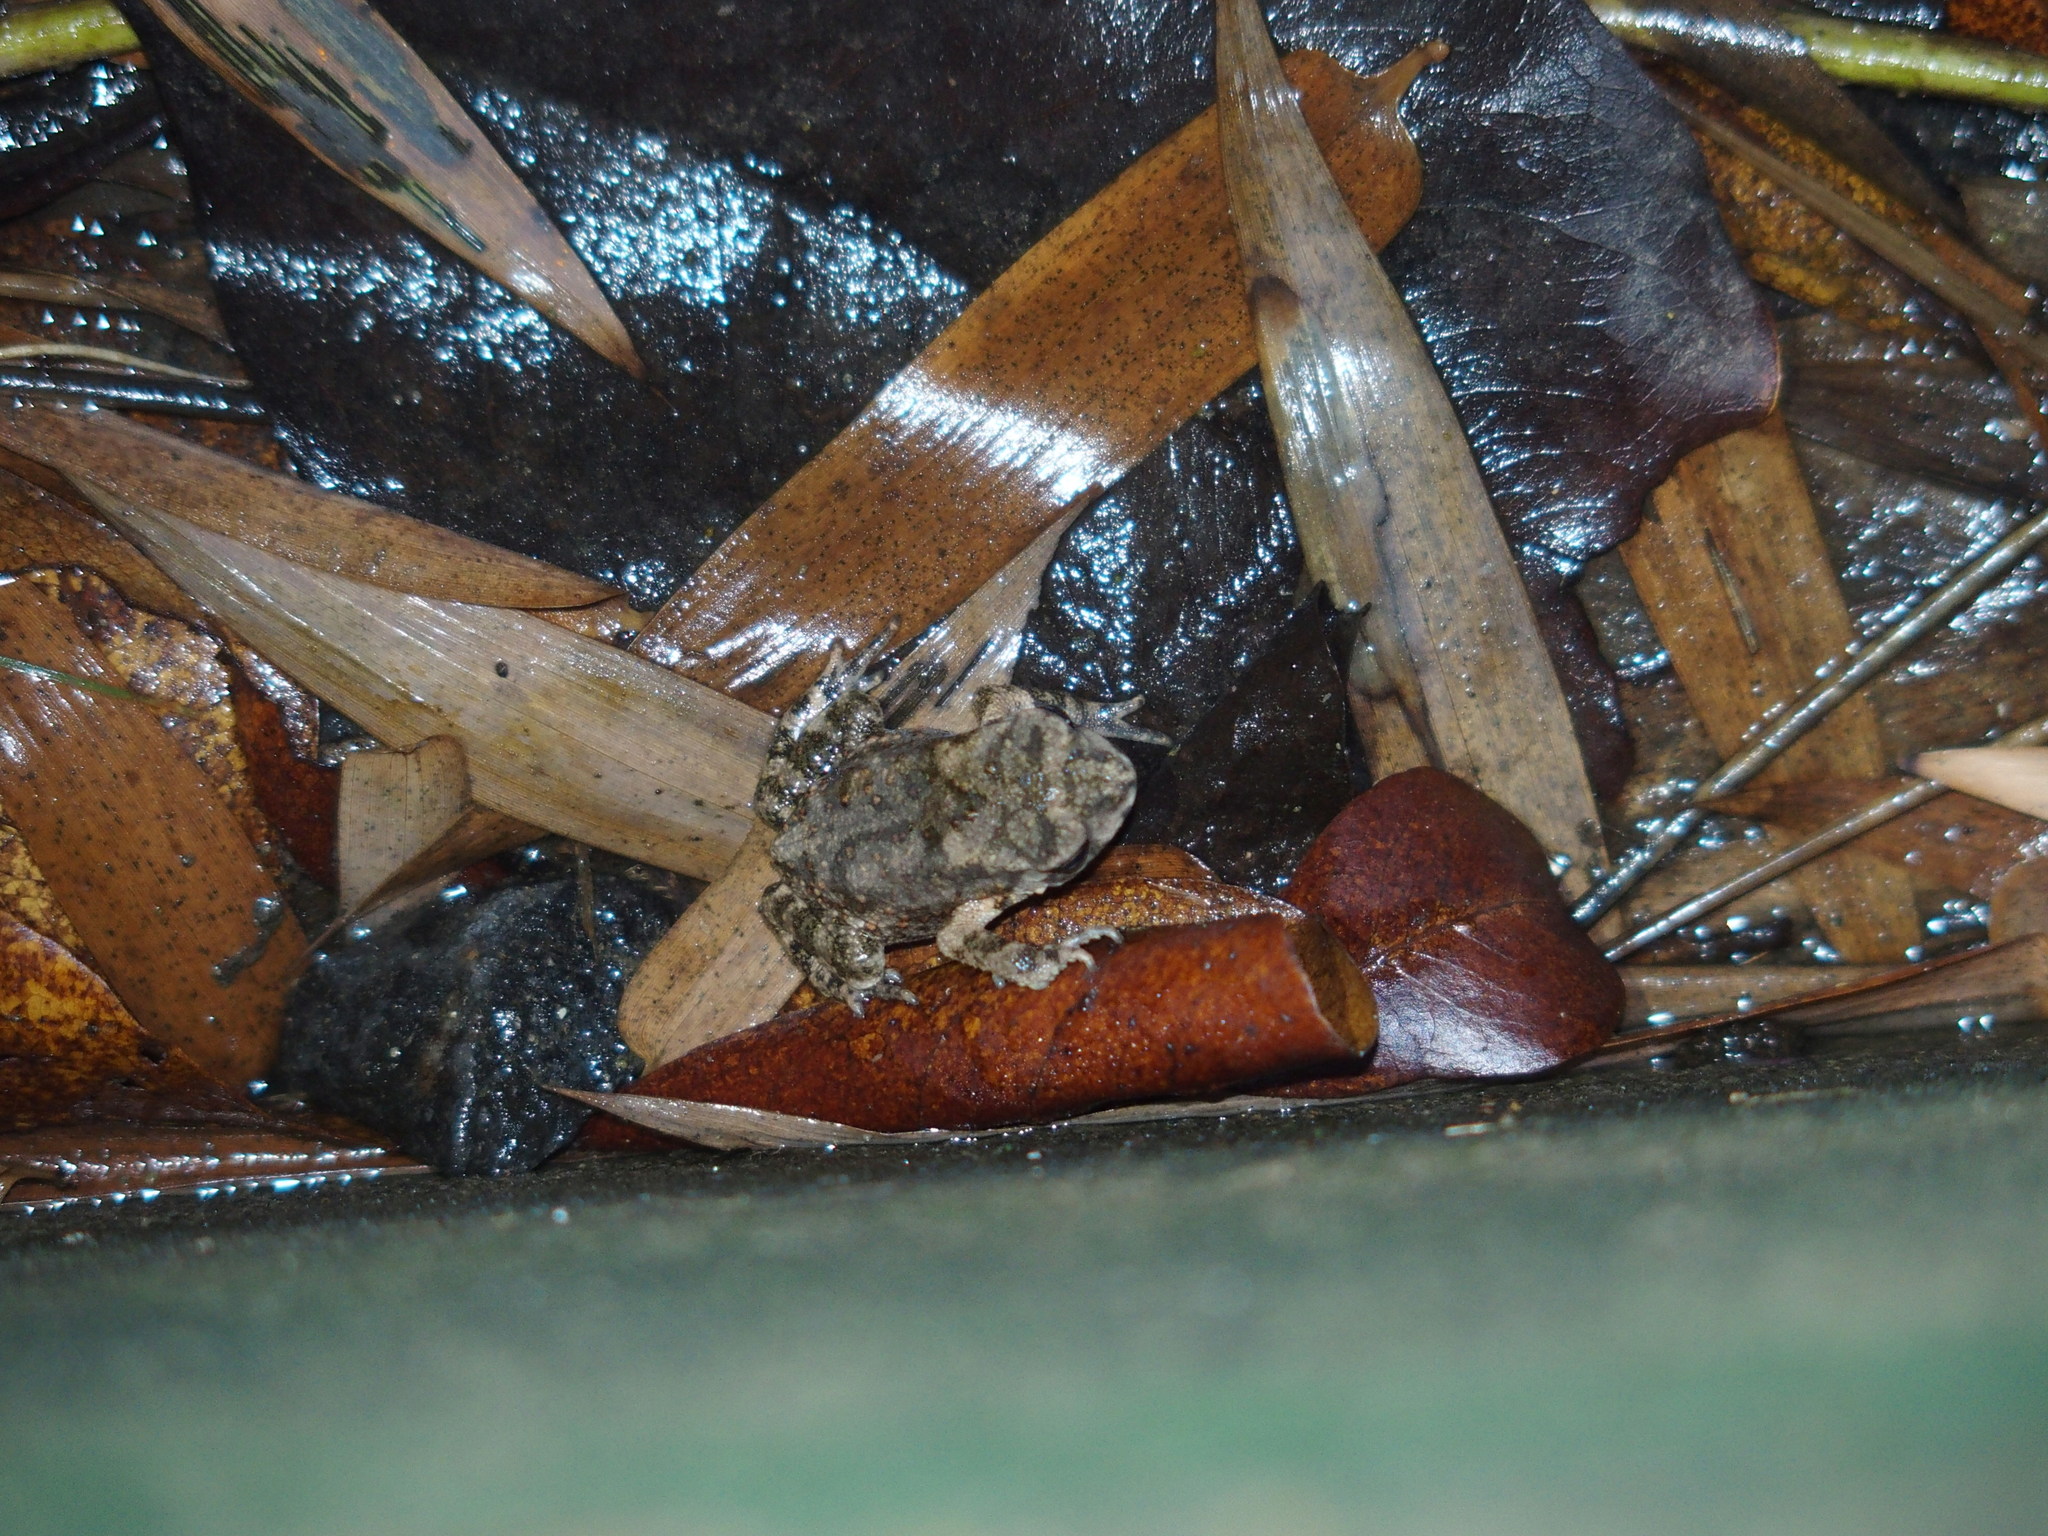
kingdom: Animalia
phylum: Chordata
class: Amphibia
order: Anura
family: Bufonidae
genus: Duttaphrynus
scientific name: Duttaphrynus melanostictus
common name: Common sunda toad
